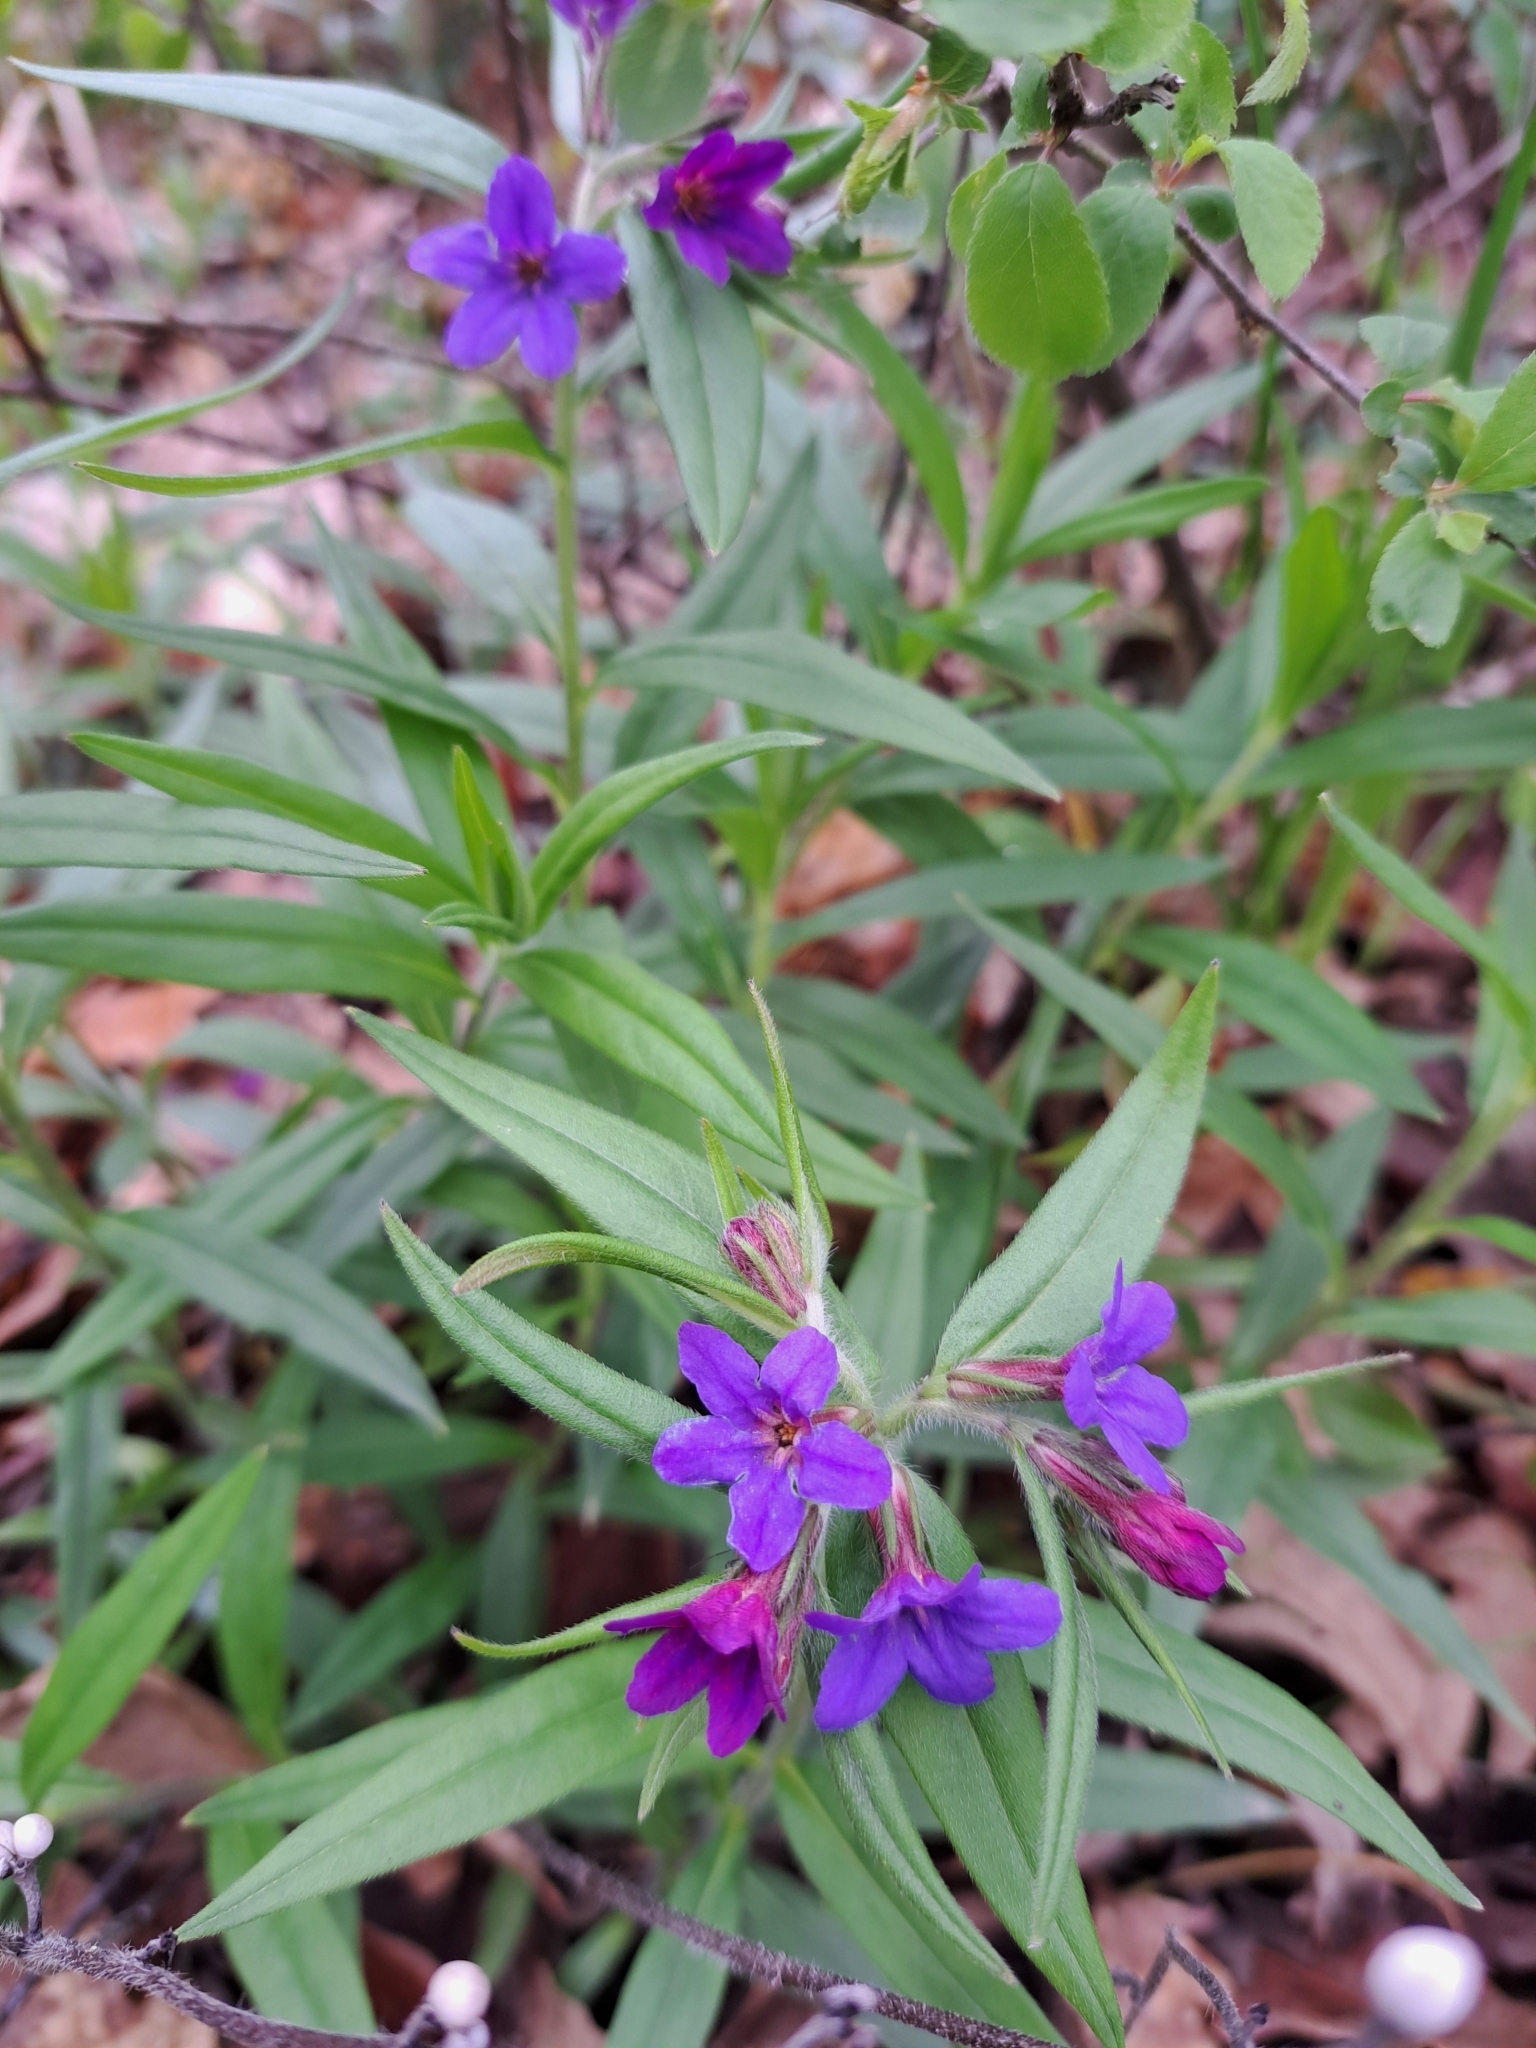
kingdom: Plantae
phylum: Tracheophyta
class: Magnoliopsida
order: Boraginales
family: Boraginaceae
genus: Aegonychon
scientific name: Aegonychon purpurocaeruleum
